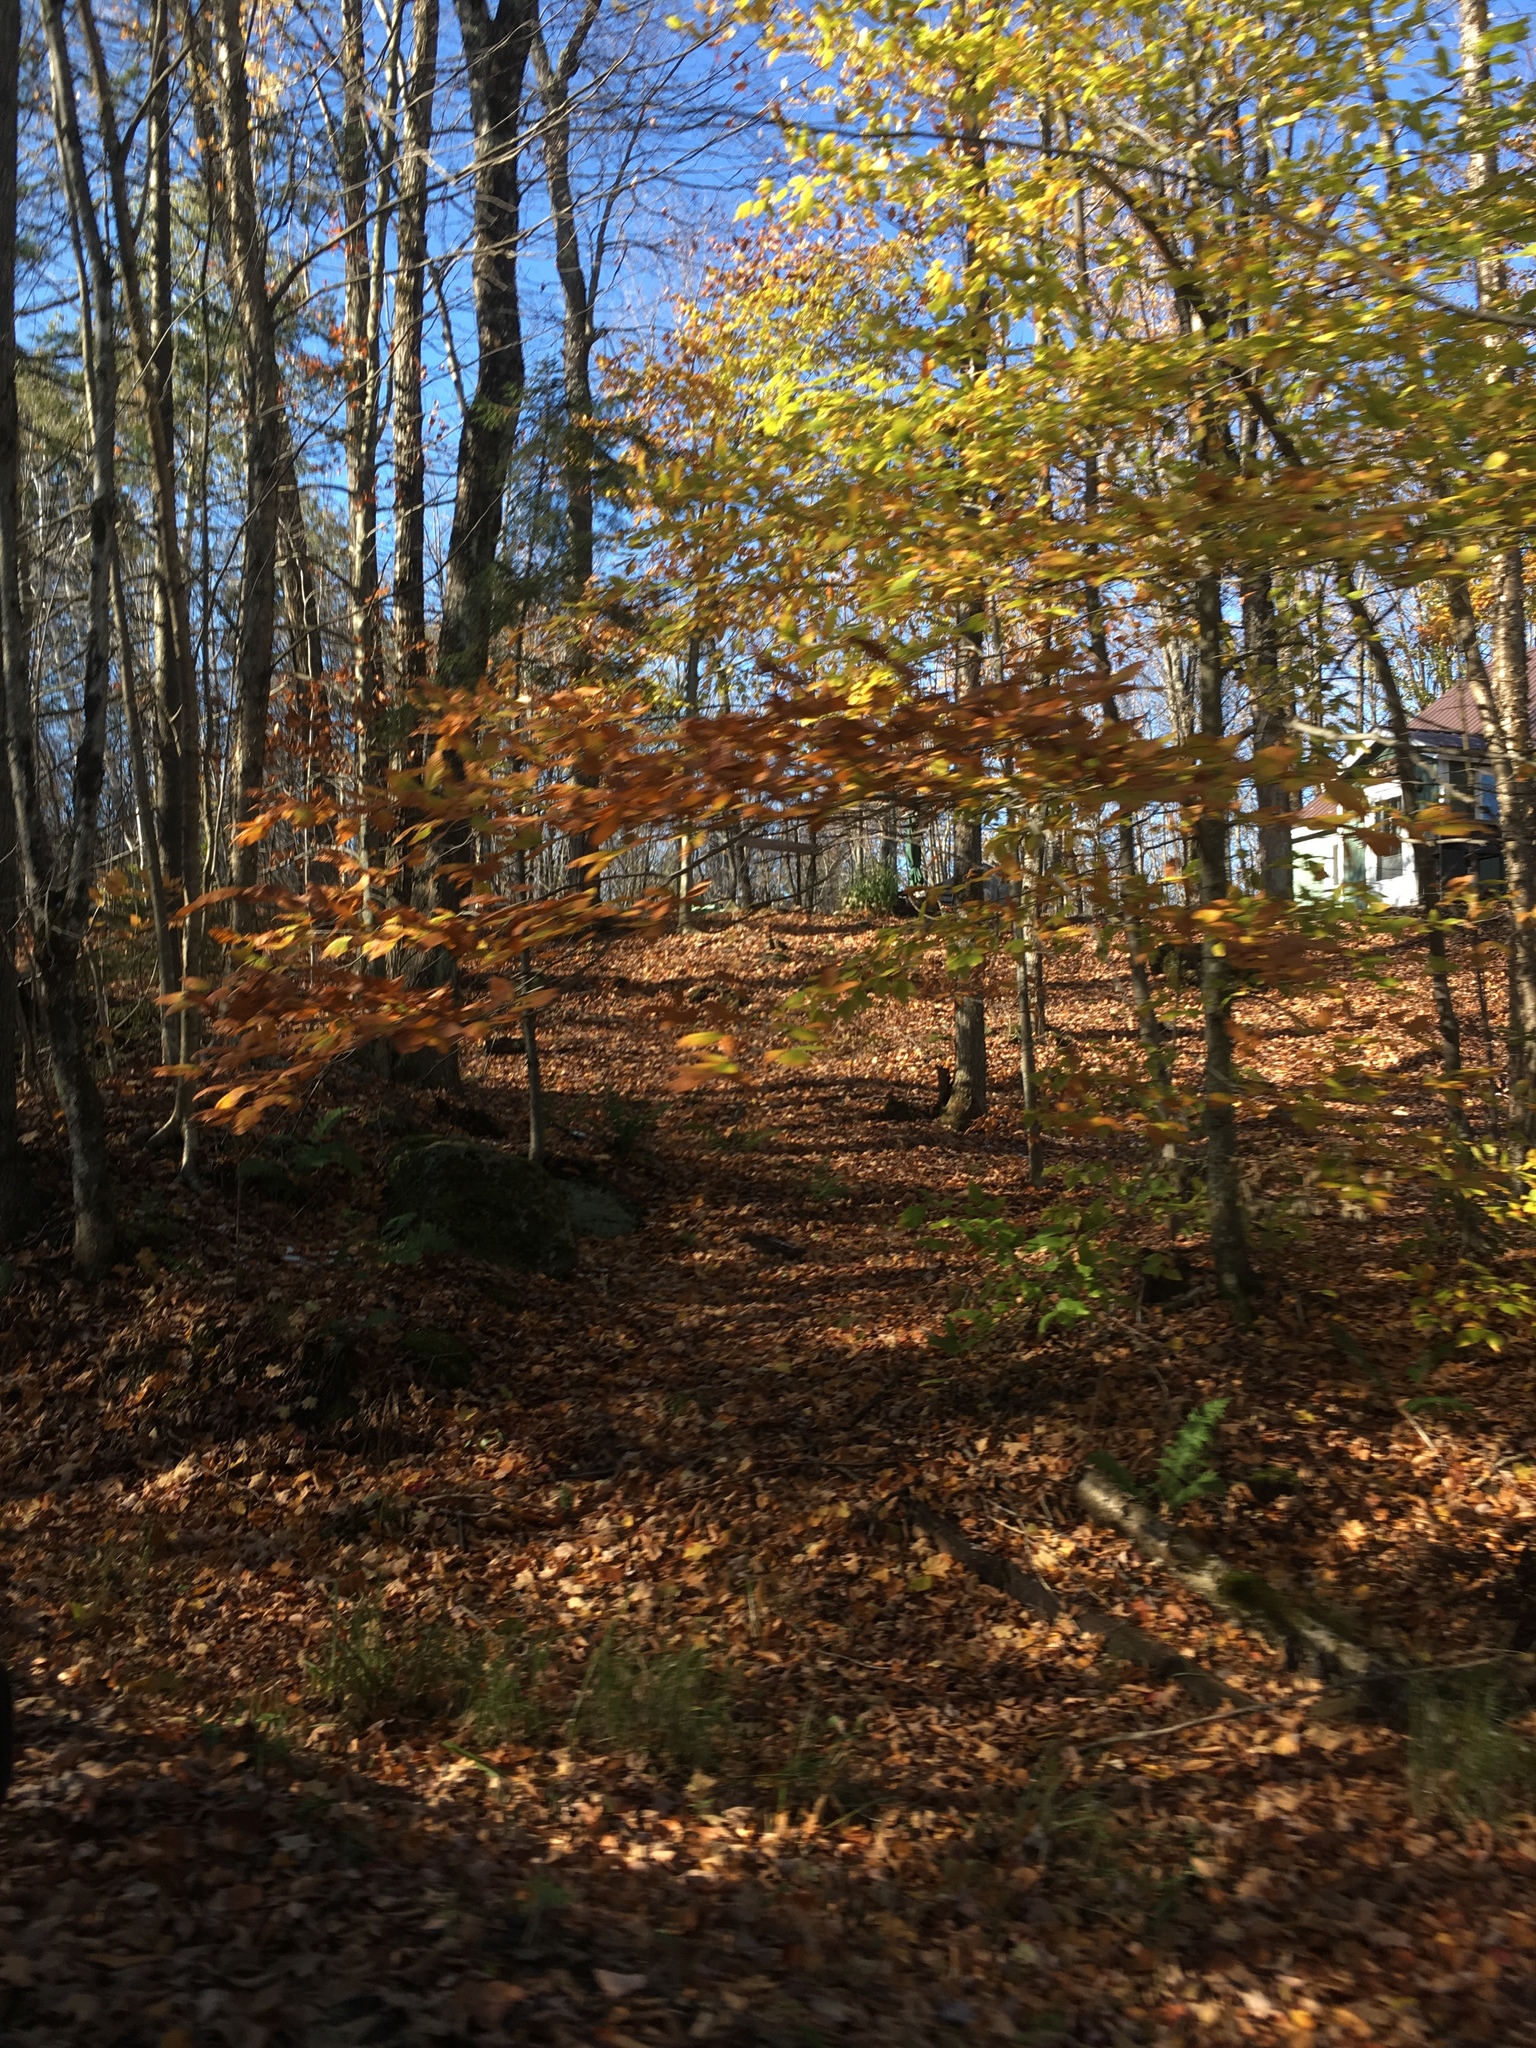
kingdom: Plantae
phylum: Tracheophyta
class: Magnoliopsida
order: Fagales
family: Fagaceae
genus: Fagus
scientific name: Fagus grandifolia
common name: American beech
